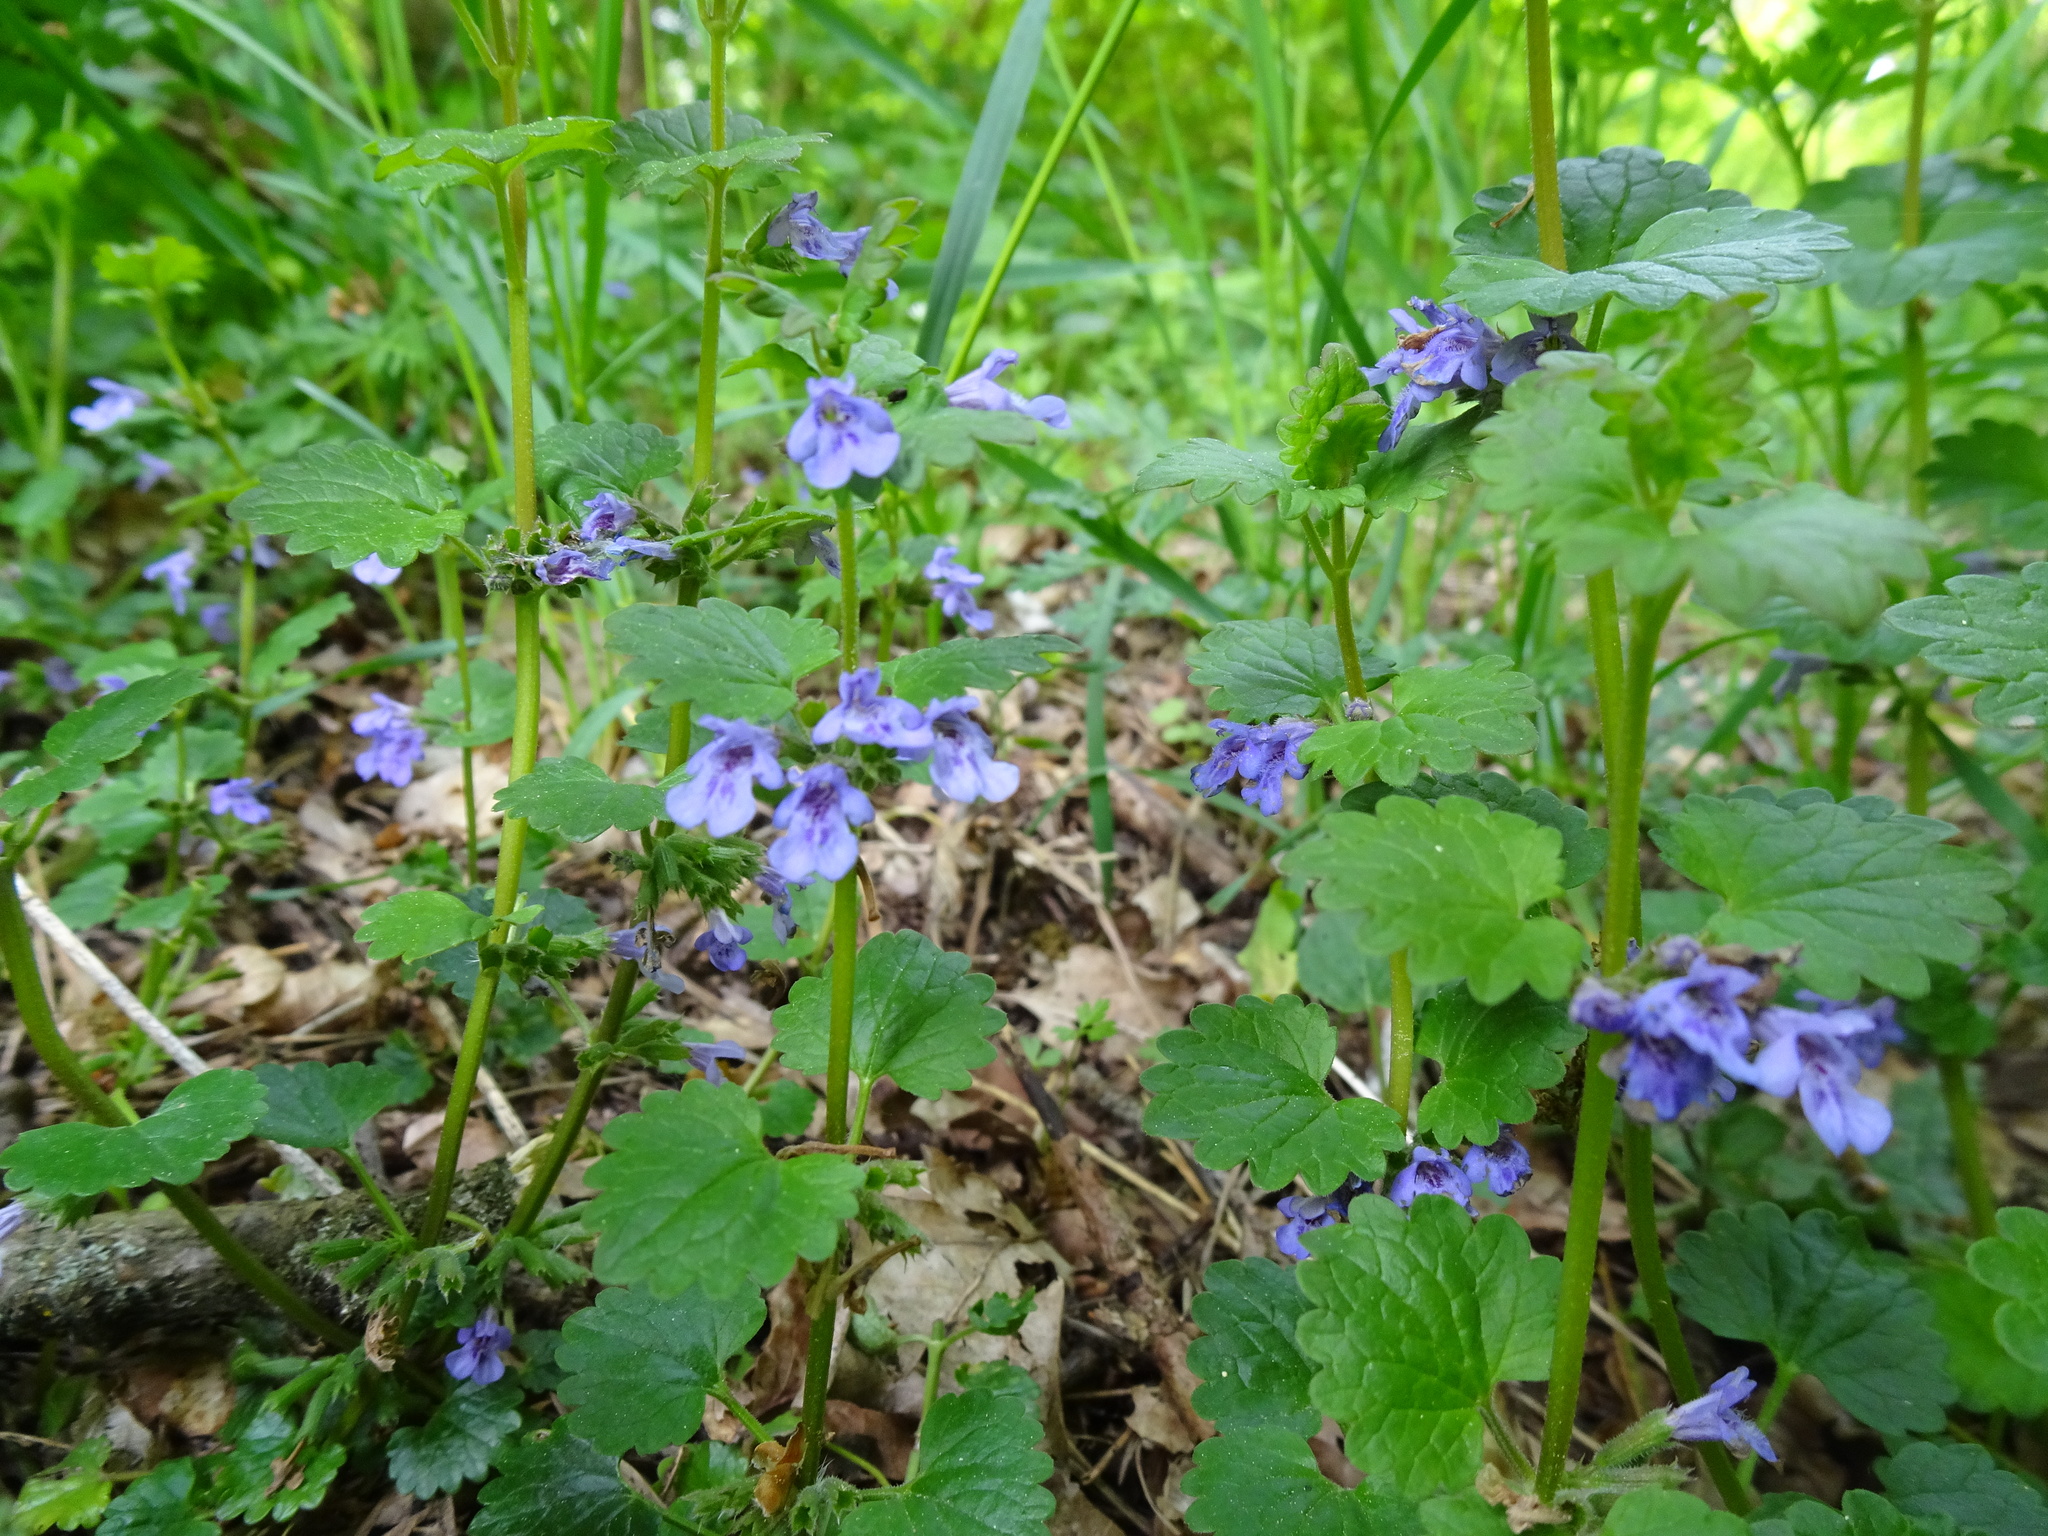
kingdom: Plantae
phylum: Tracheophyta
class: Magnoliopsida
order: Lamiales
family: Lamiaceae
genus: Glechoma
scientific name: Glechoma hederacea
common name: Ground ivy
